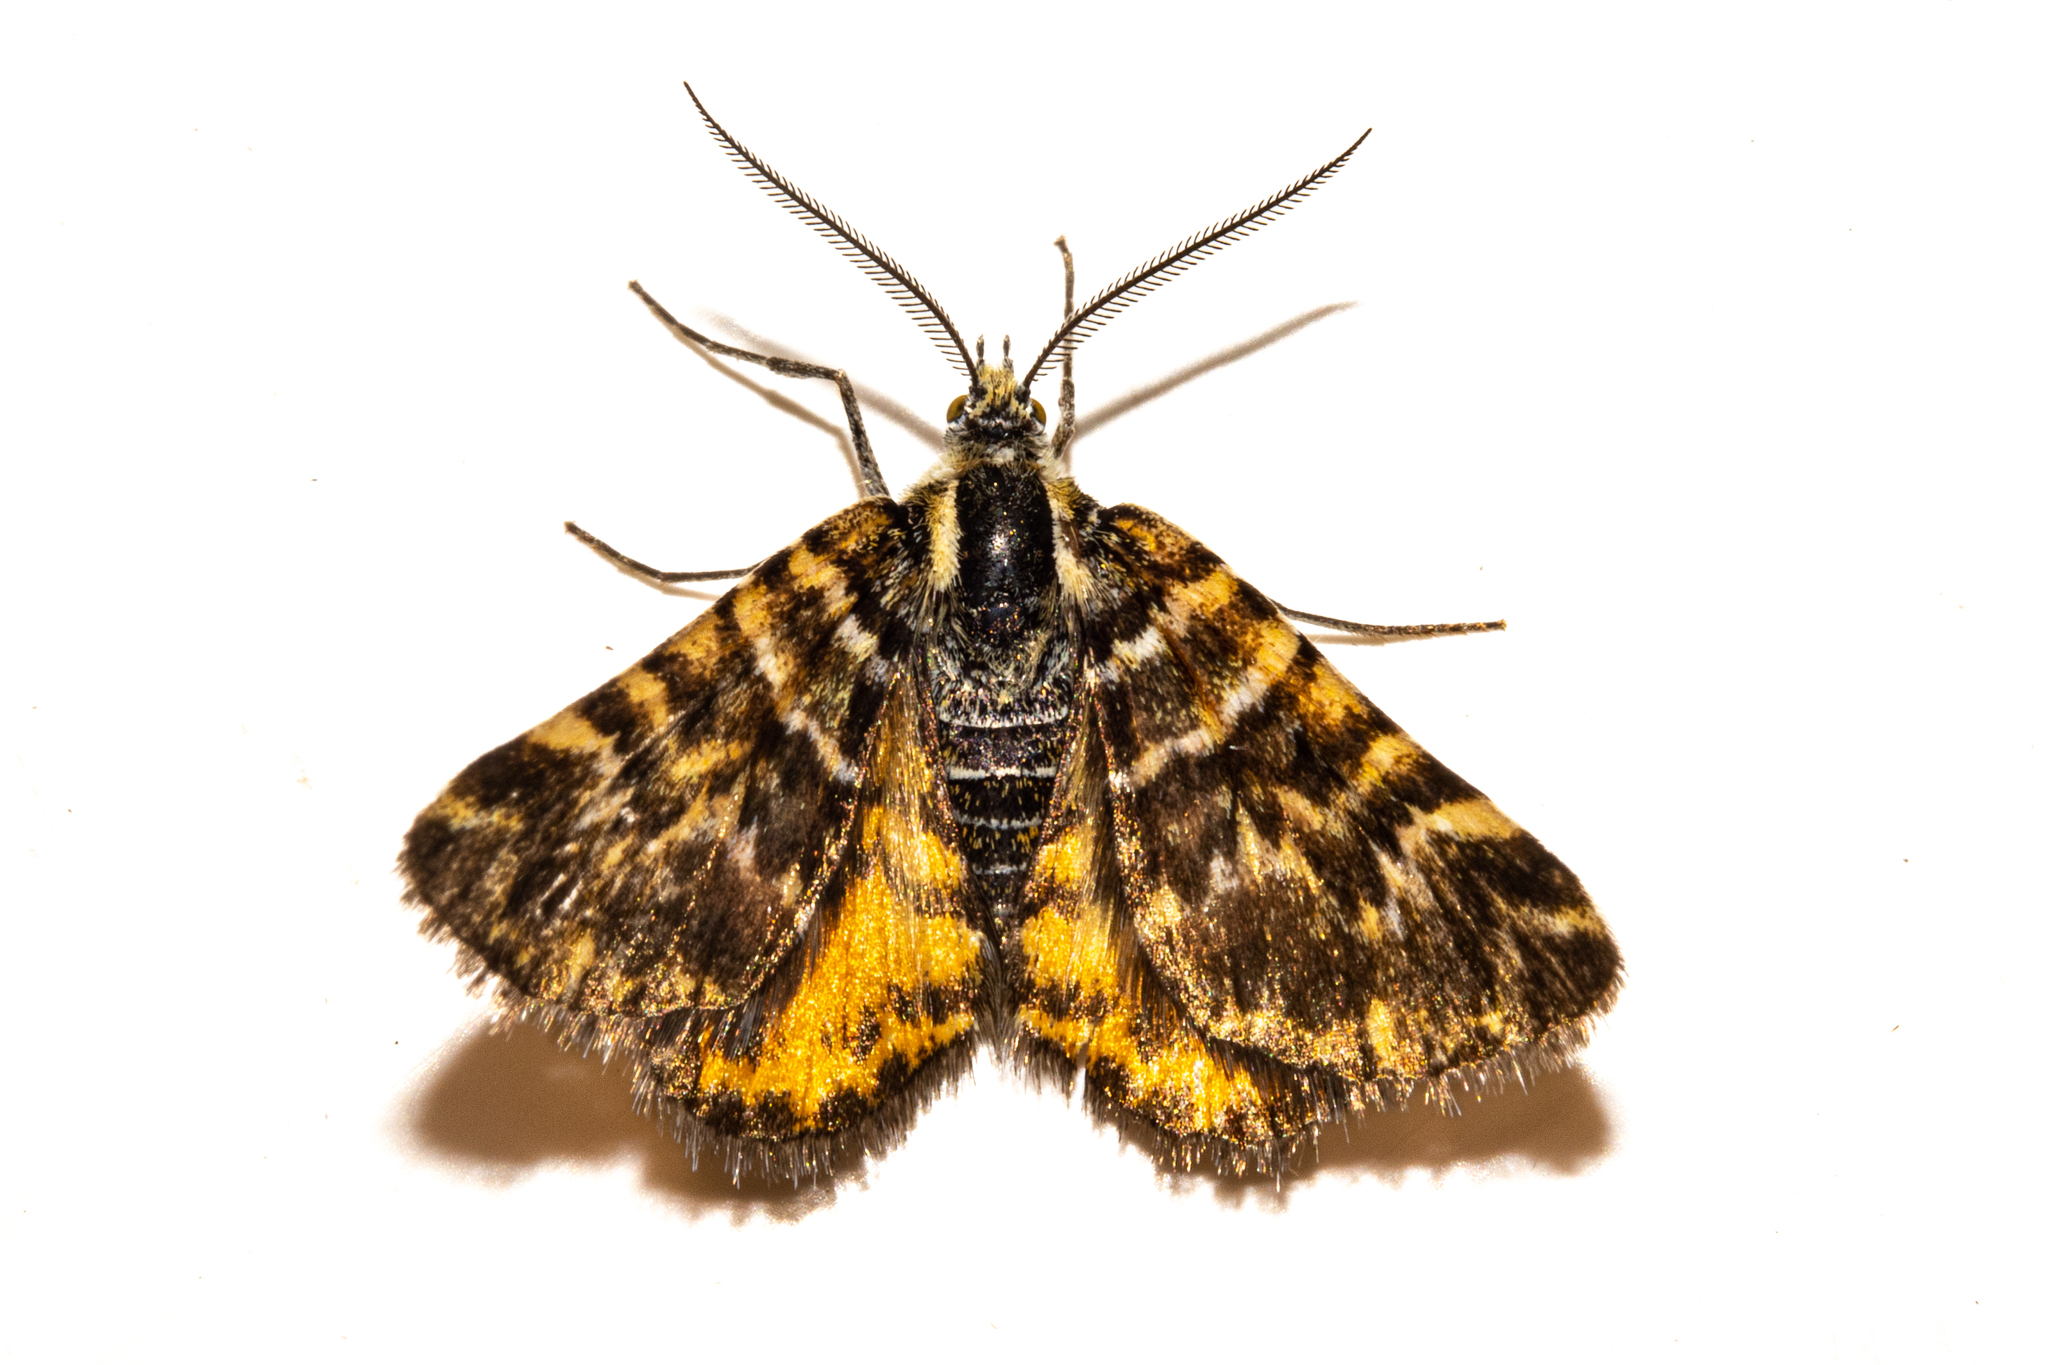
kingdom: Animalia
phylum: Arthropoda
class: Insecta
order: Lepidoptera
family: Geometridae
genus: Notoreas
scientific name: Notoreas
